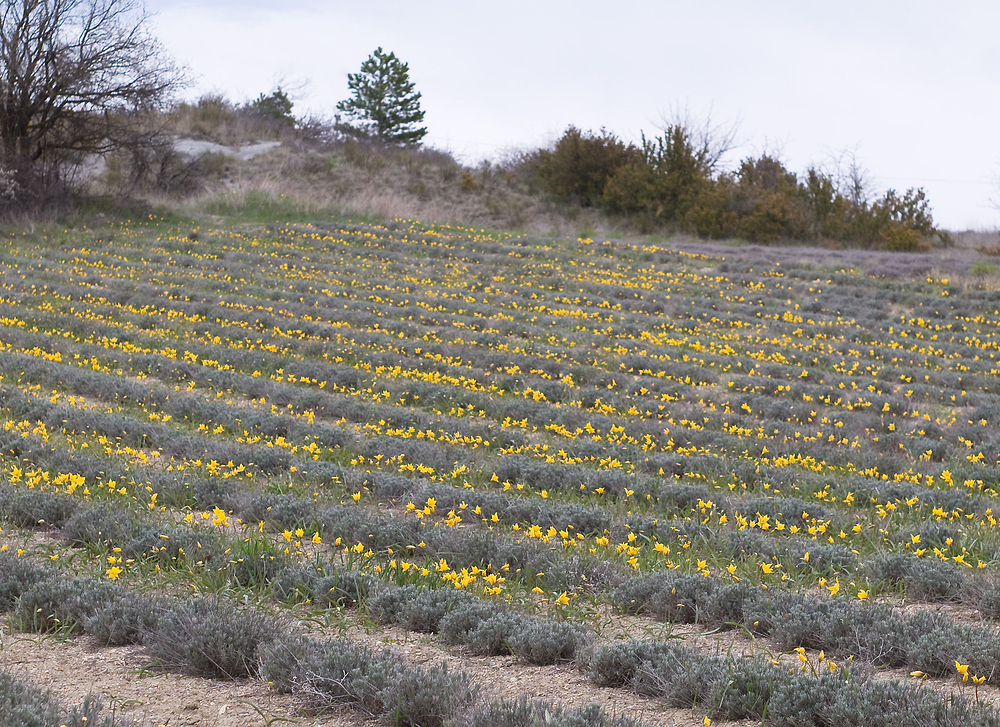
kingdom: Plantae
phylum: Tracheophyta
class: Liliopsida
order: Liliales
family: Liliaceae
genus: Tulipa
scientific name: Tulipa sylvestris
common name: Wild tulip
